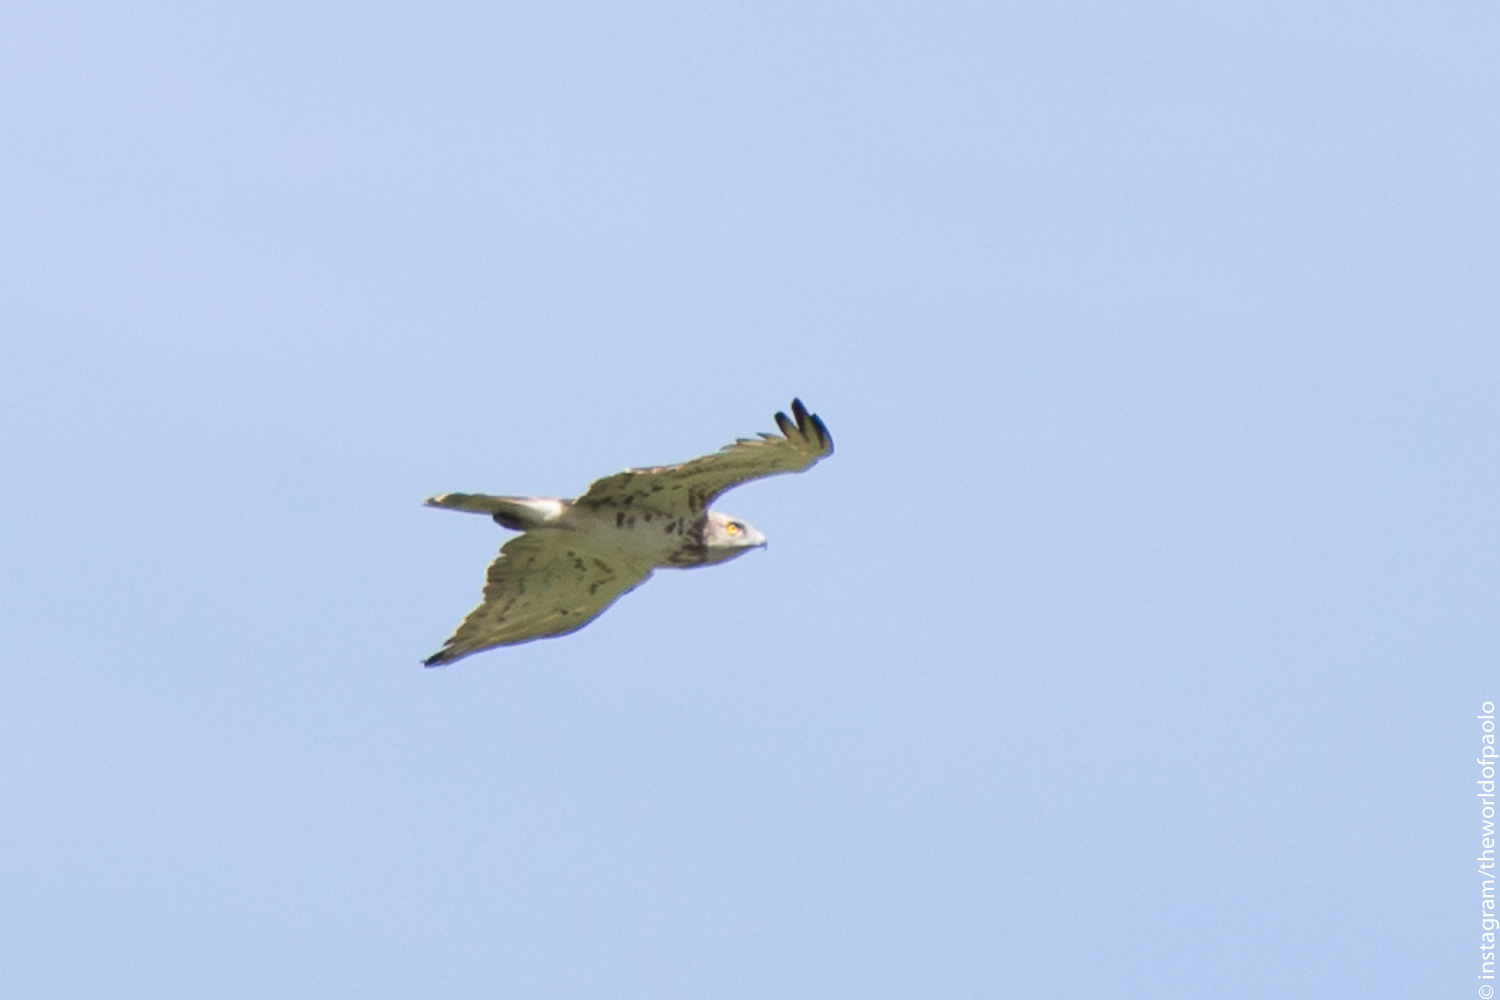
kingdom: Animalia
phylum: Chordata
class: Aves
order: Accipitriformes
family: Accipitridae
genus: Circaetus
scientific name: Circaetus gallicus
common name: Short-toed snake eagle
